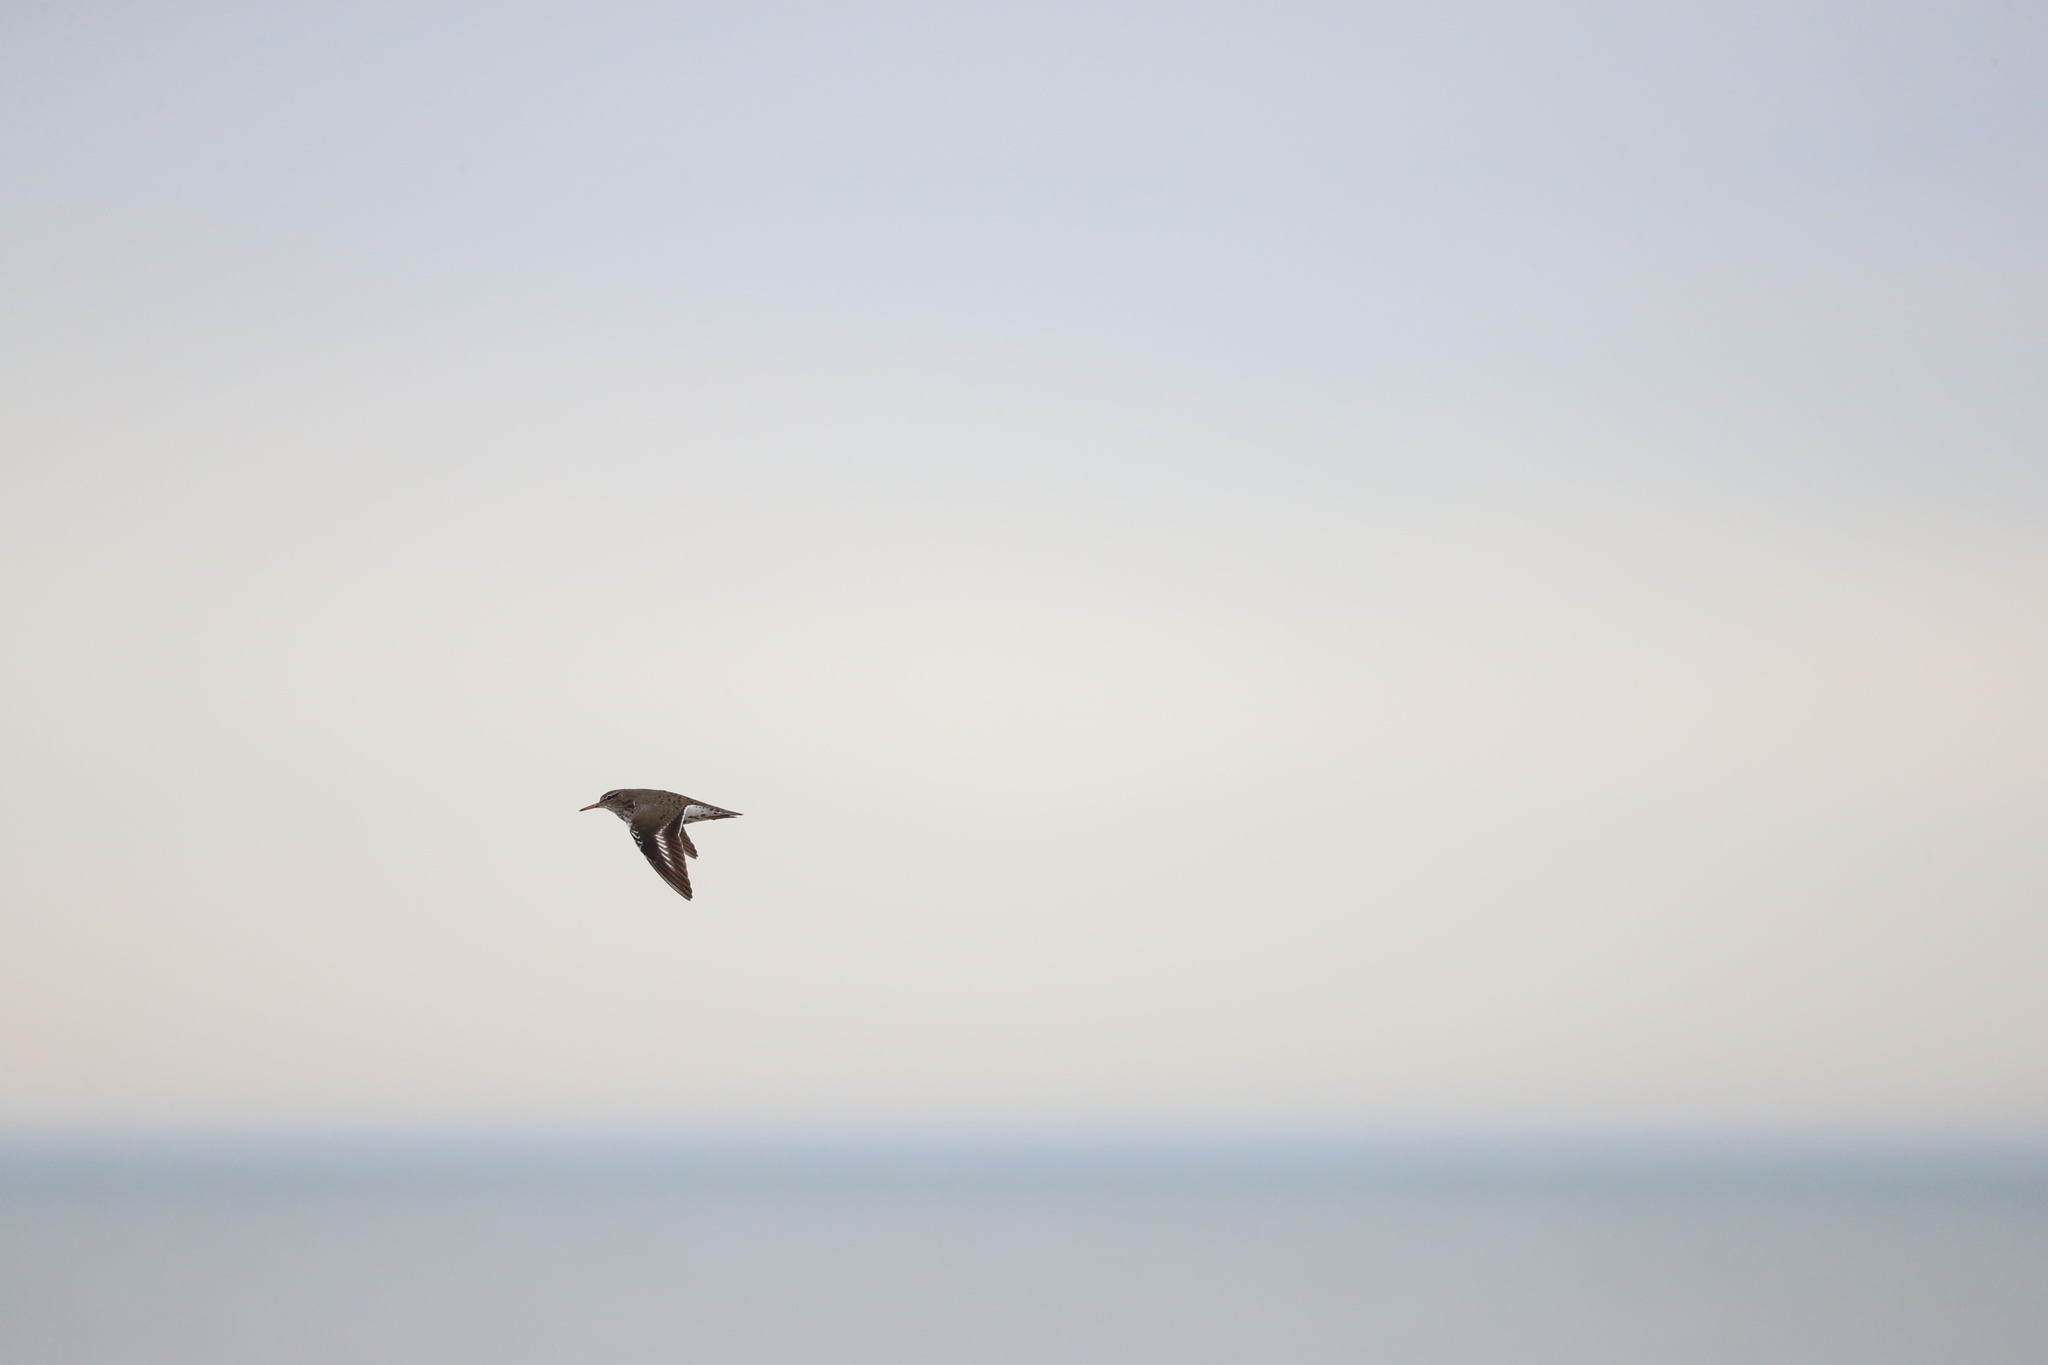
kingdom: Animalia
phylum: Chordata
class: Aves
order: Charadriiformes
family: Scolopacidae
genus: Actitis
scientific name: Actitis macularius
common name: Spotted sandpiper
